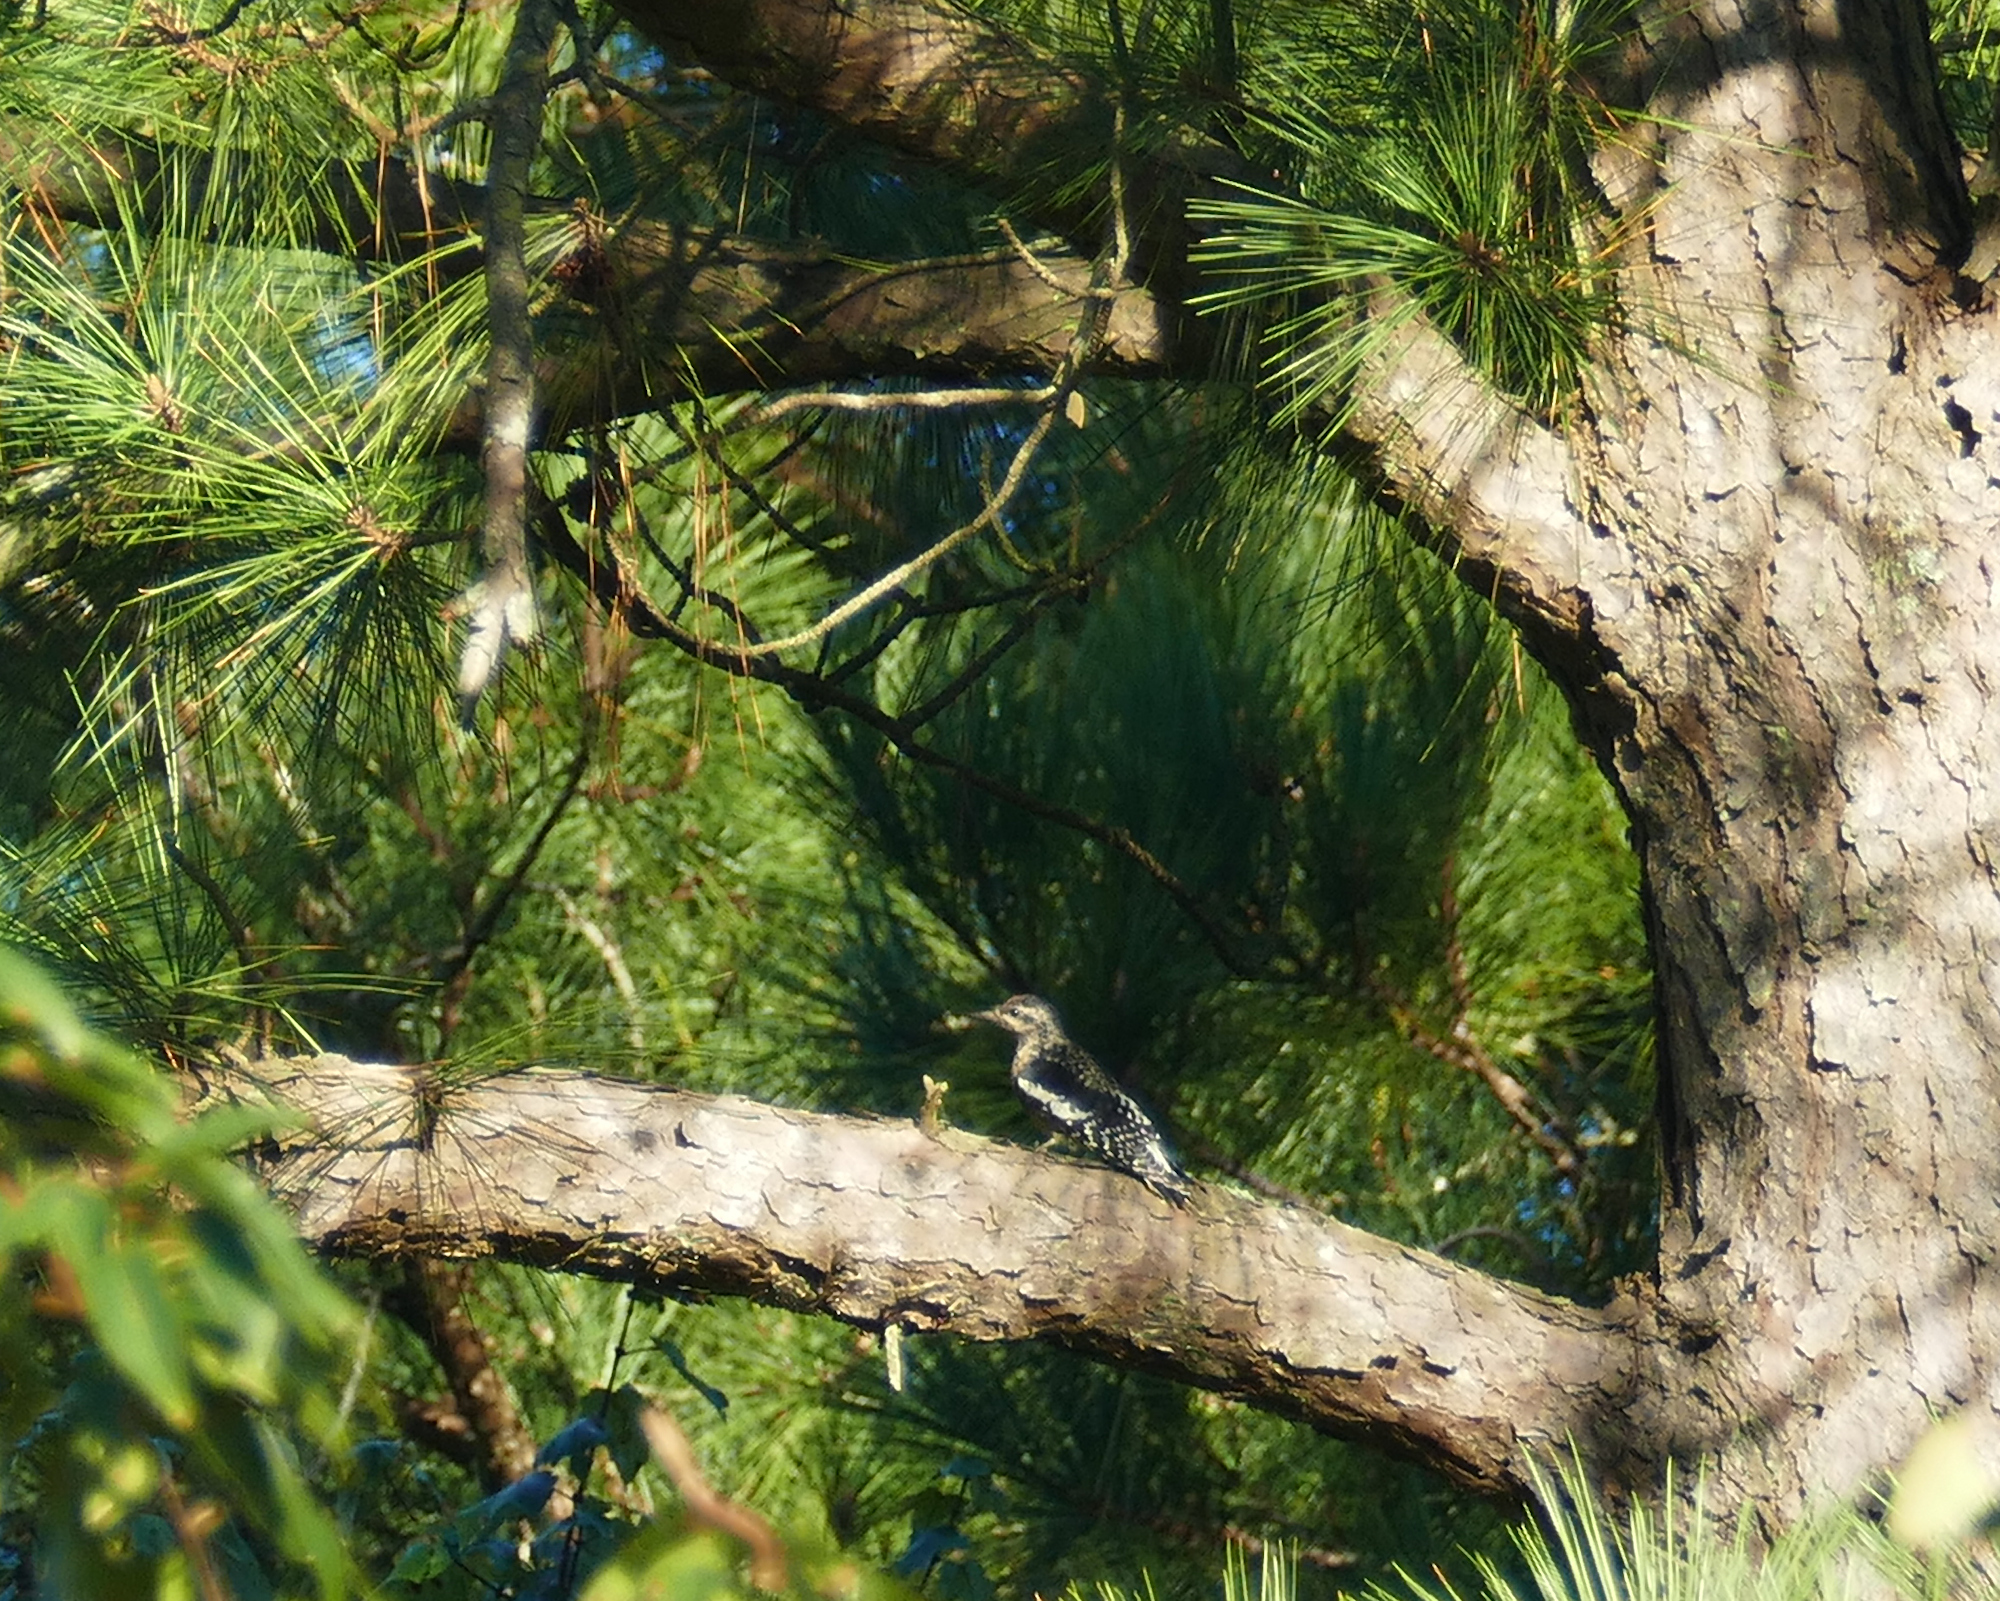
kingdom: Animalia
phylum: Chordata
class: Aves
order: Piciformes
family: Picidae
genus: Sphyrapicus
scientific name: Sphyrapicus varius
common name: Yellow-bellied sapsucker
